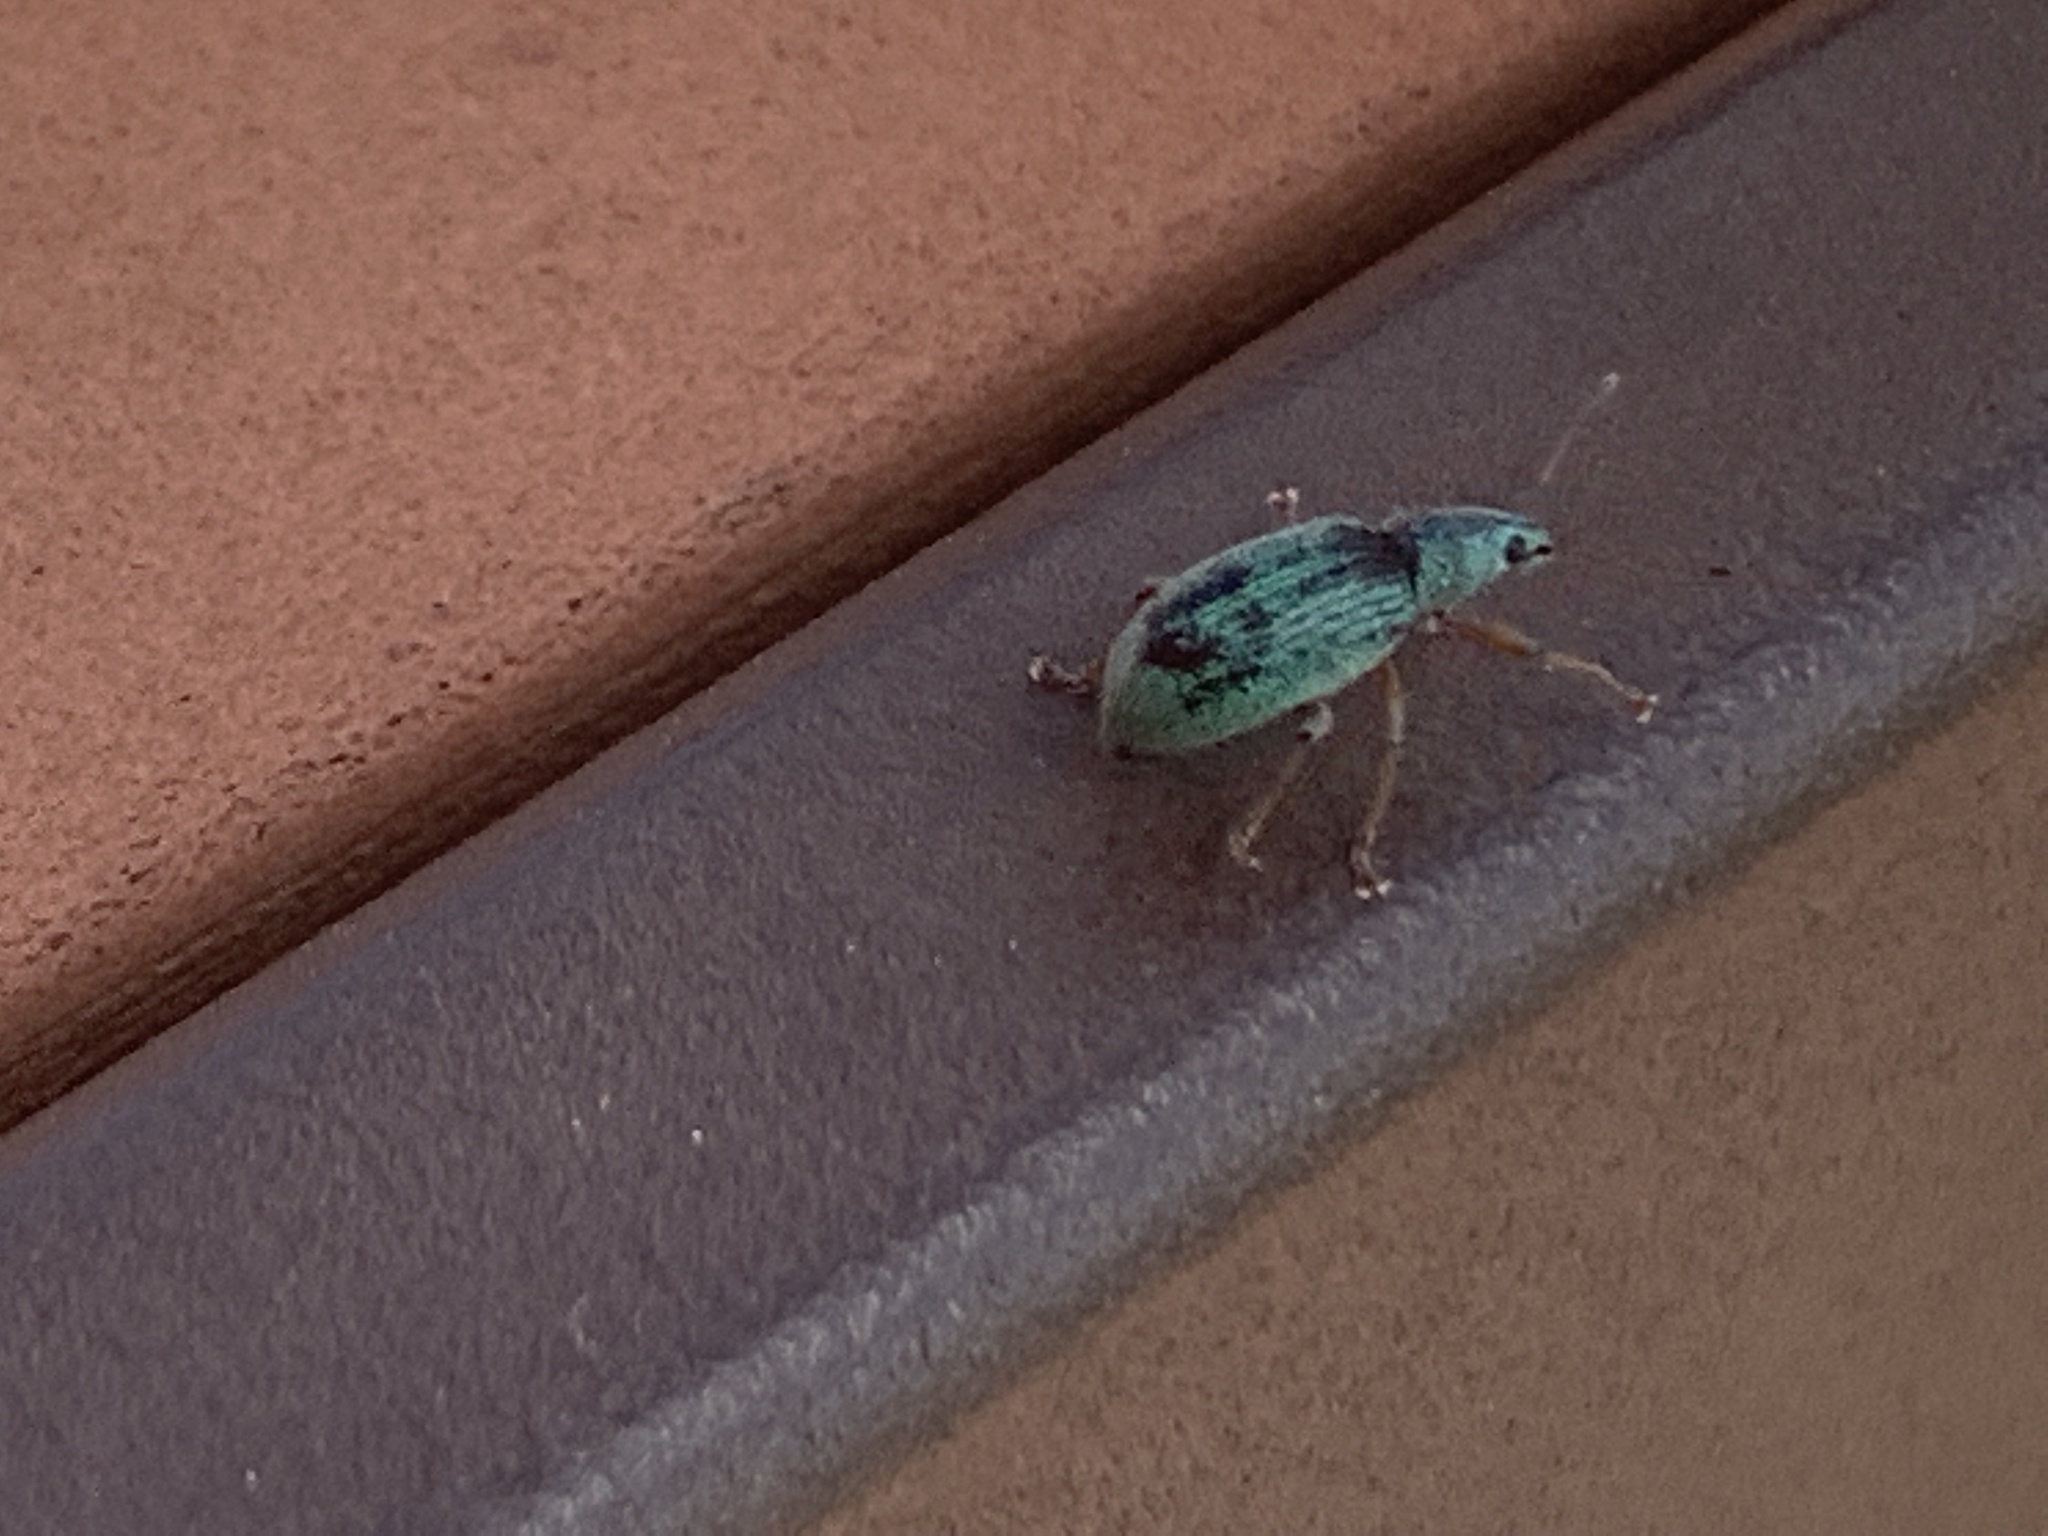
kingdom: Animalia
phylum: Arthropoda
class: Insecta
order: Coleoptera
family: Curculionidae
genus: Polydrusus
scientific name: Polydrusus formosus
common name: Weevil
